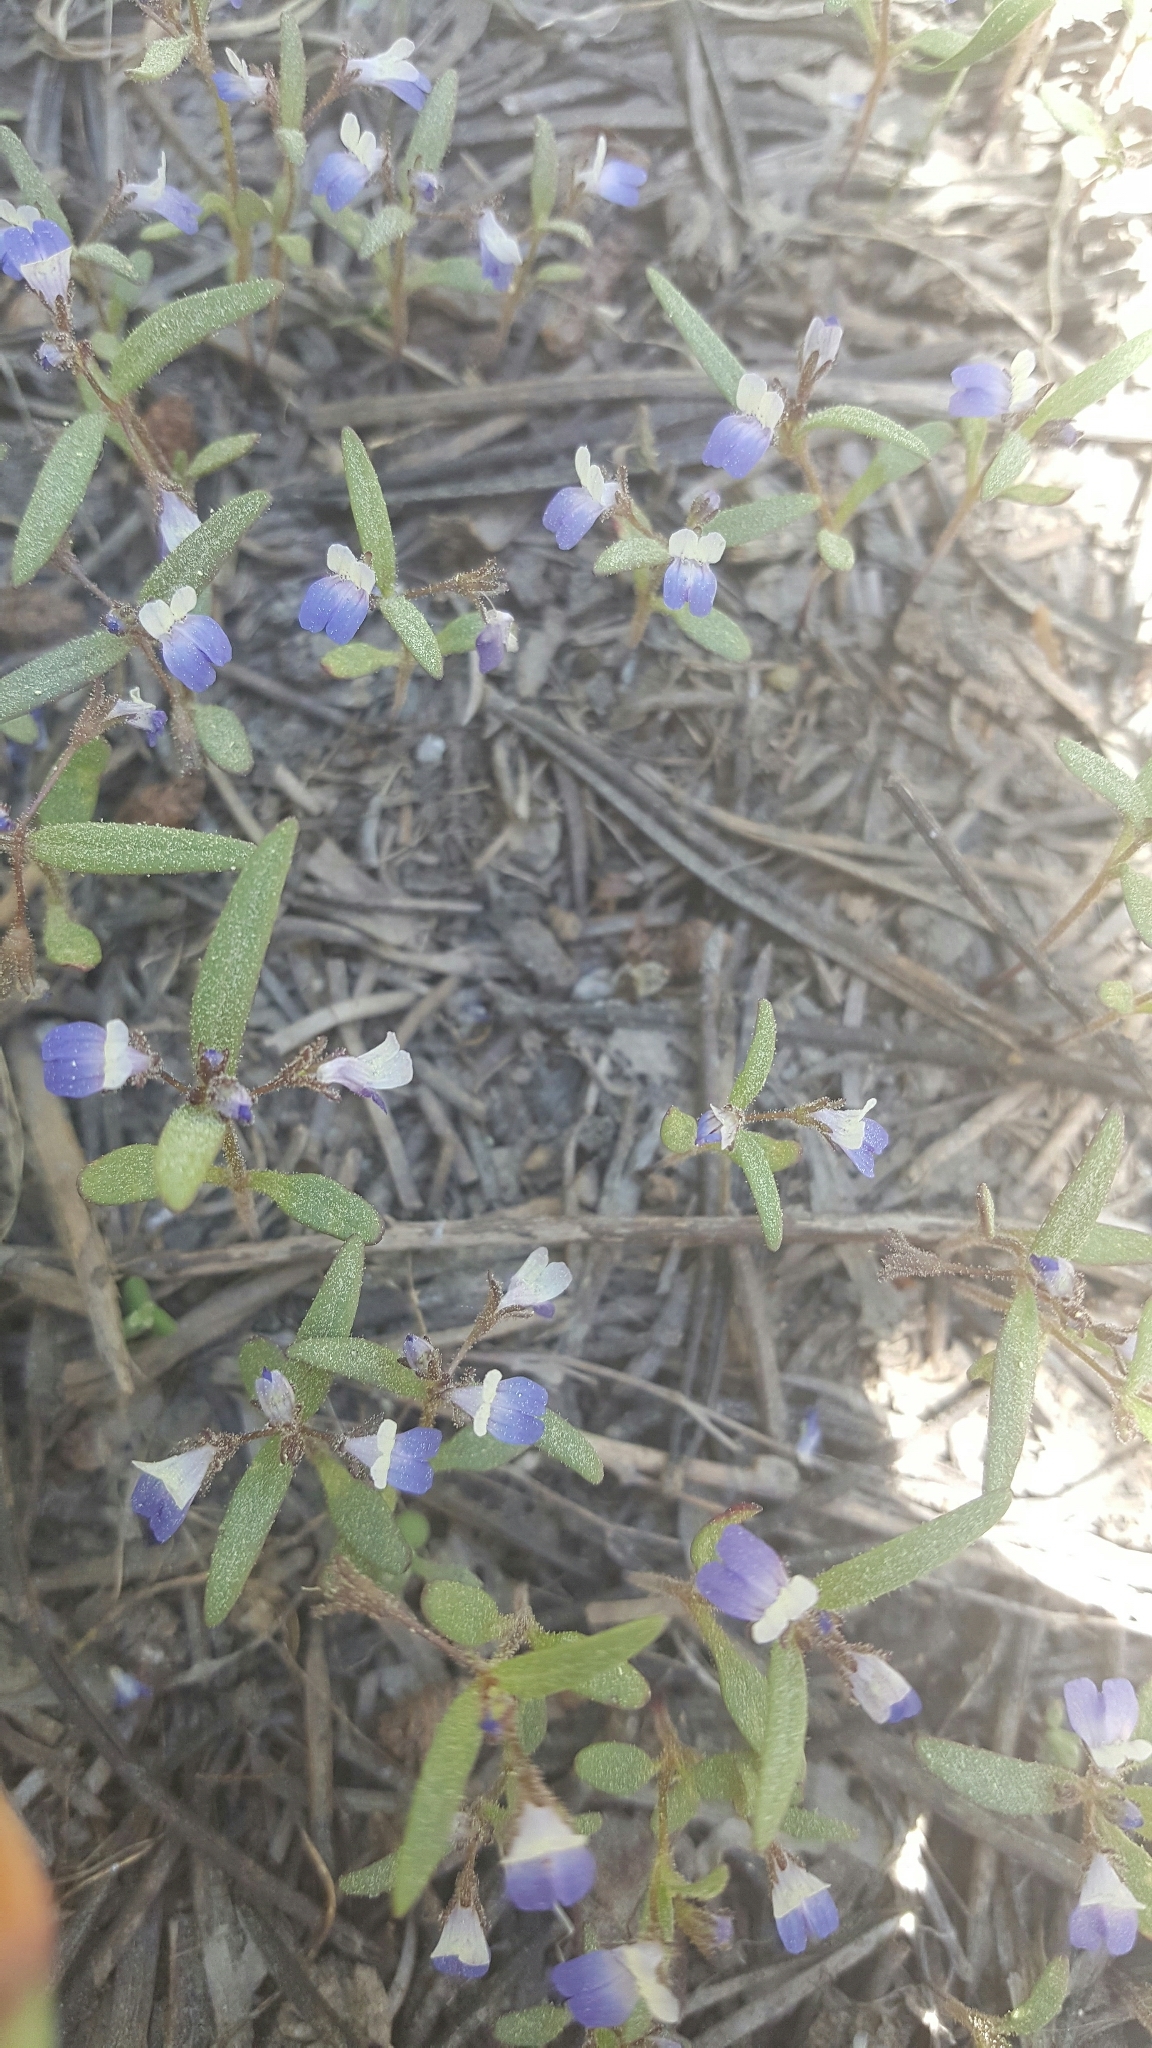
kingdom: Plantae
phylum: Tracheophyta
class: Magnoliopsida
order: Lamiales
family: Plantaginaceae
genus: Collinsia
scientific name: Collinsia torreyi
